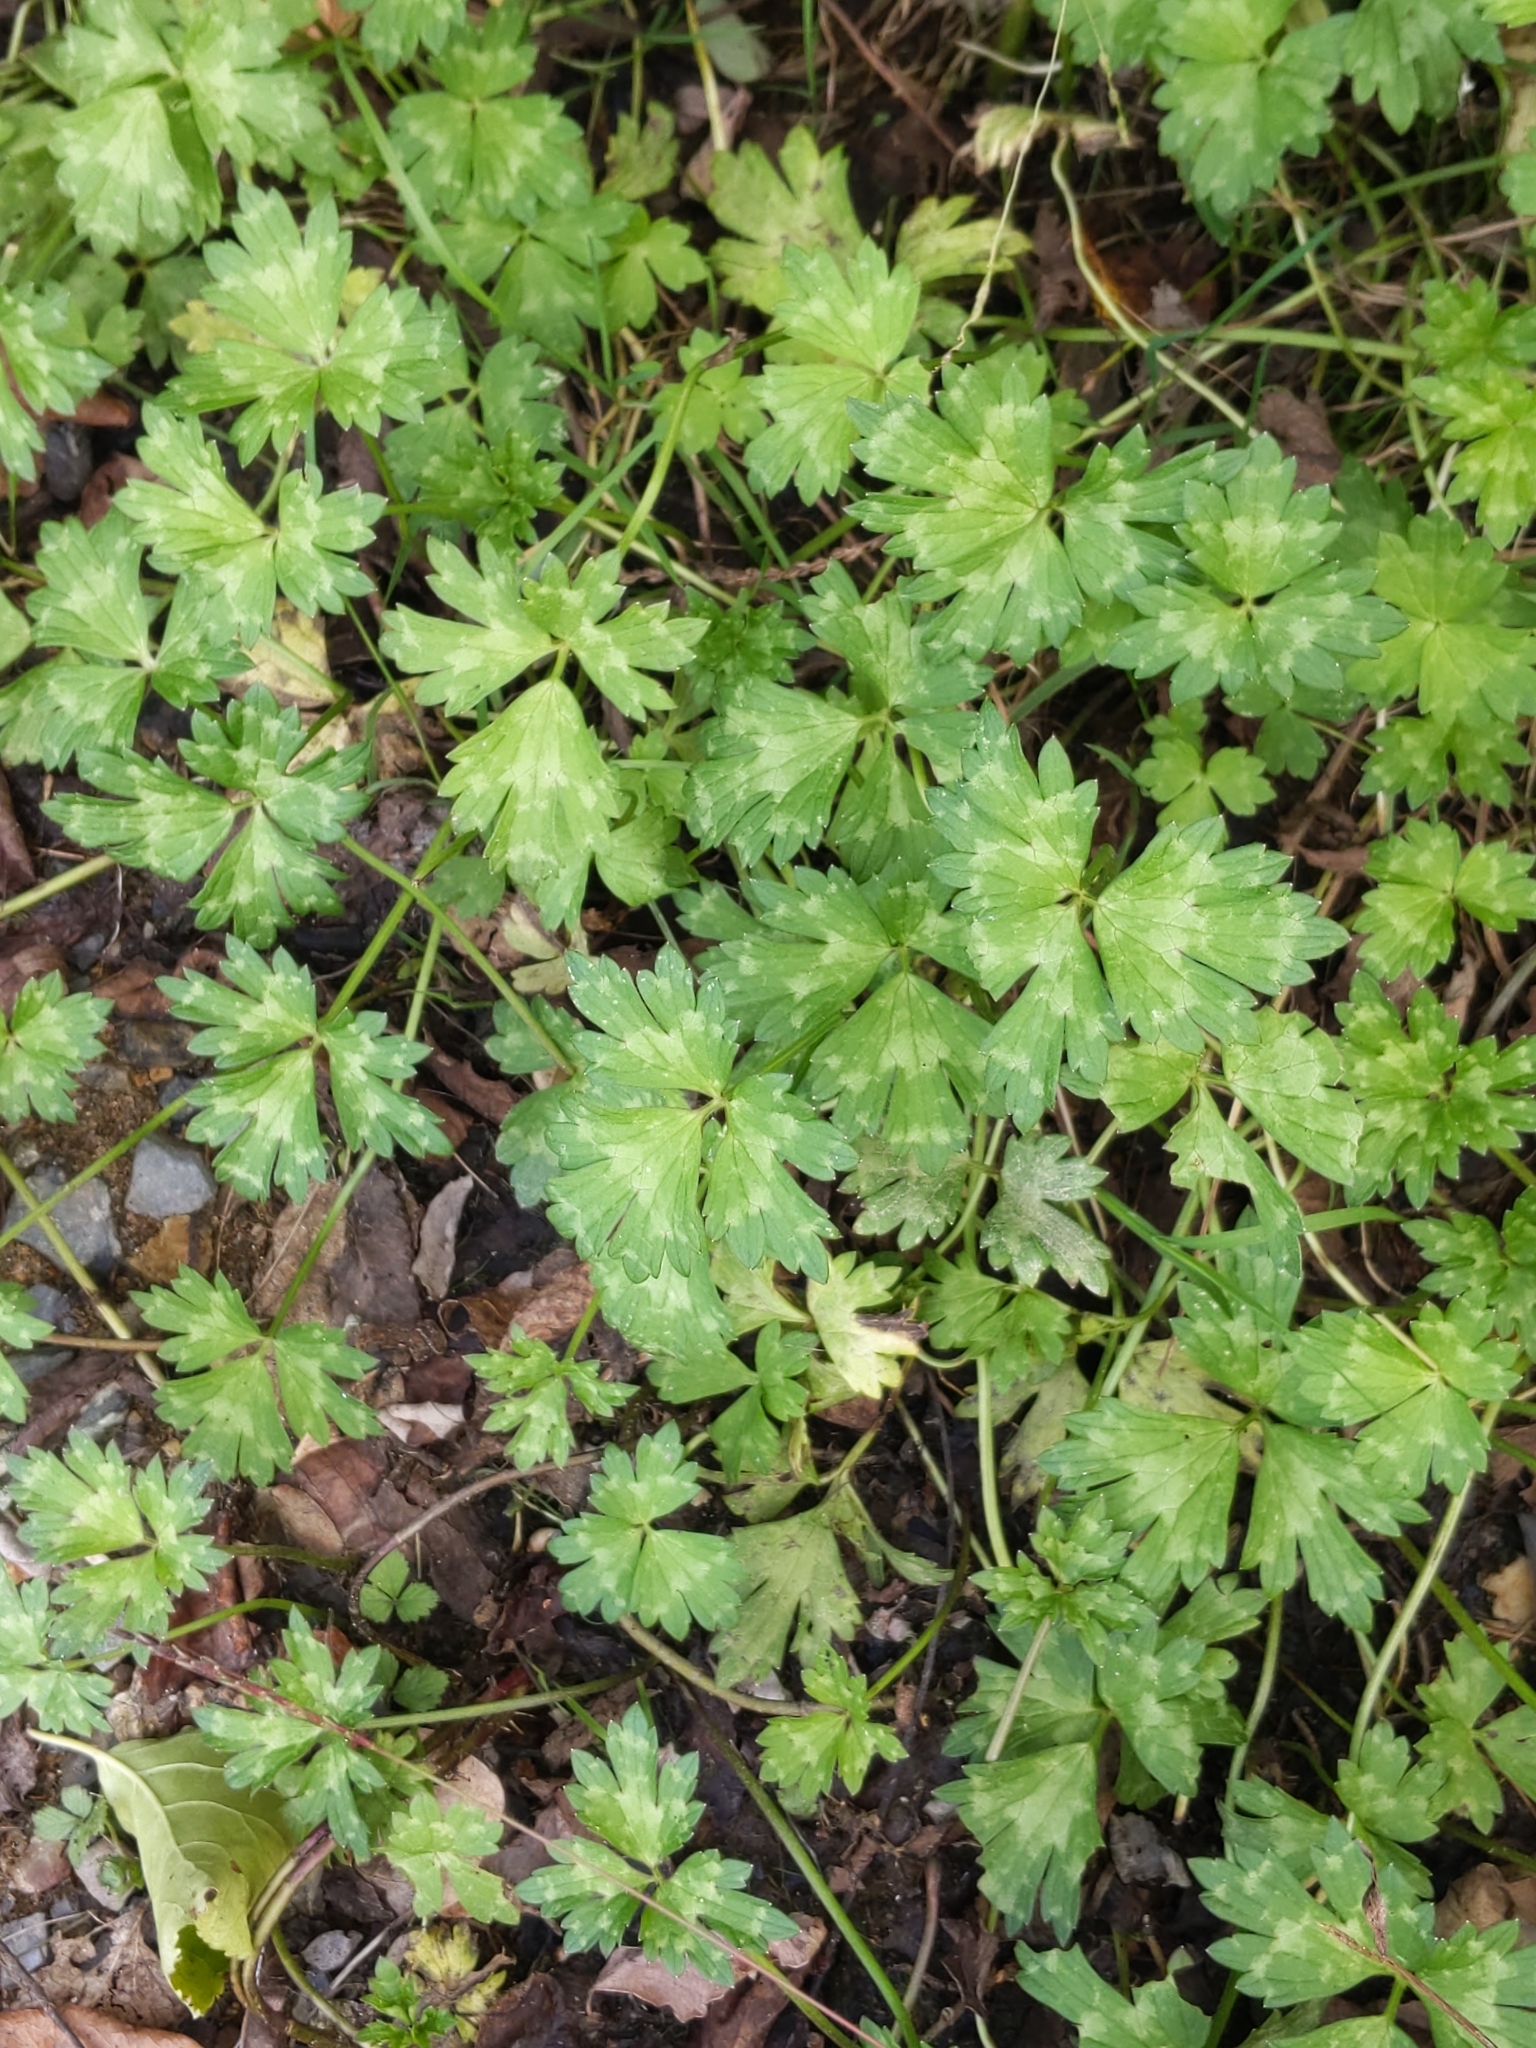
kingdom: Plantae
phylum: Tracheophyta
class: Magnoliopsida
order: Ranunculales
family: Ranunculaceae
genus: Ranunculus
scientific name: Ranunculus repens
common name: Creeping buttercup
